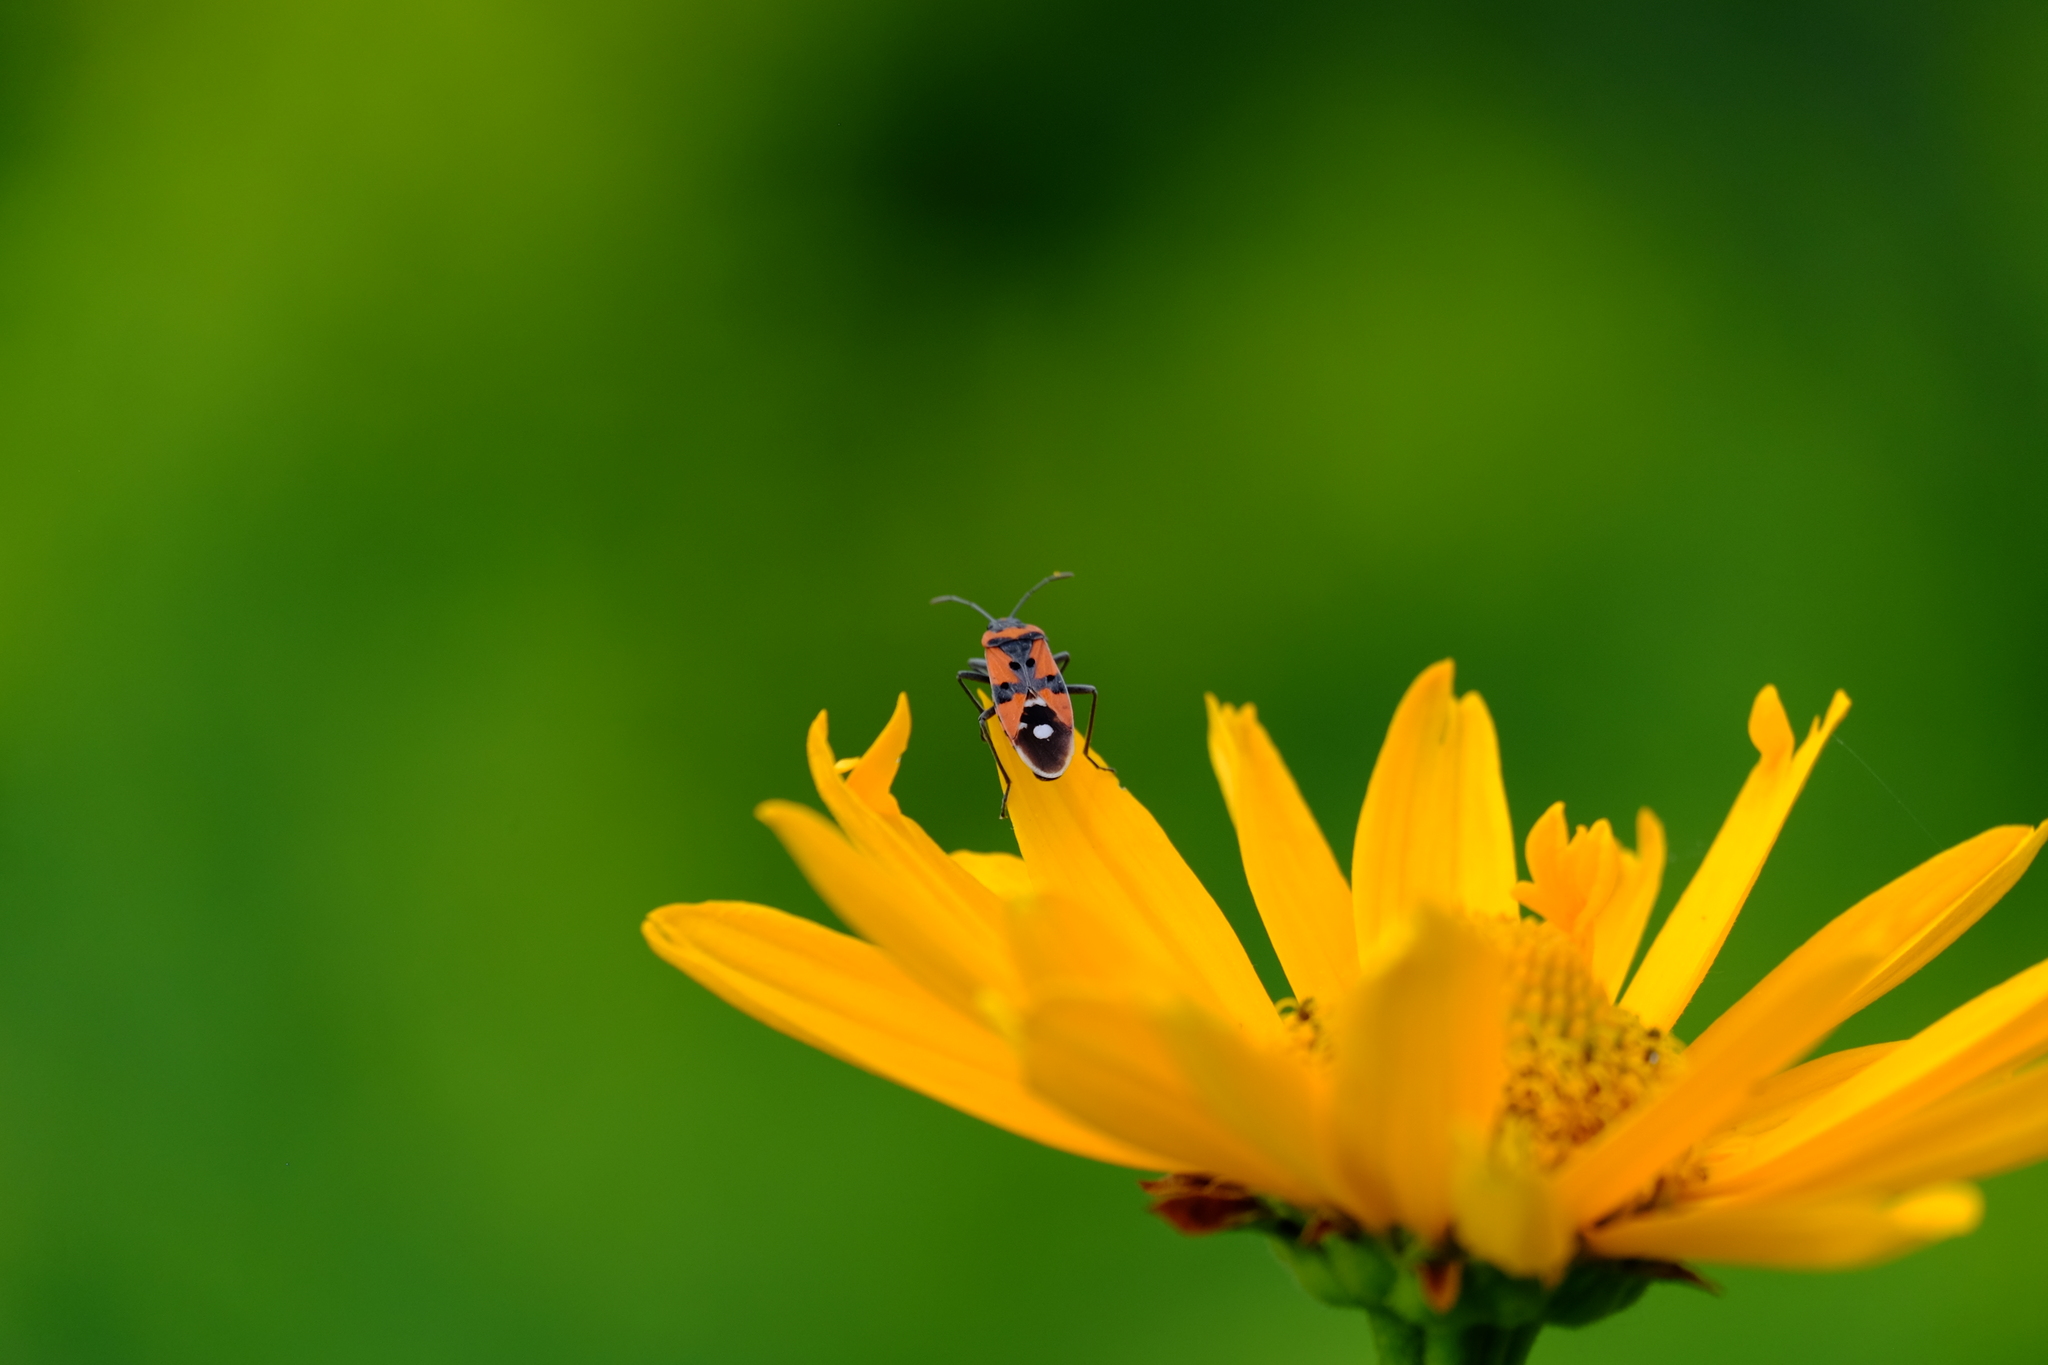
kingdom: Animalia
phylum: Arthropoda
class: Insecta
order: Hemiptera
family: Lygaeidae
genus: Lygaeus
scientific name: Lygaeus equestris
